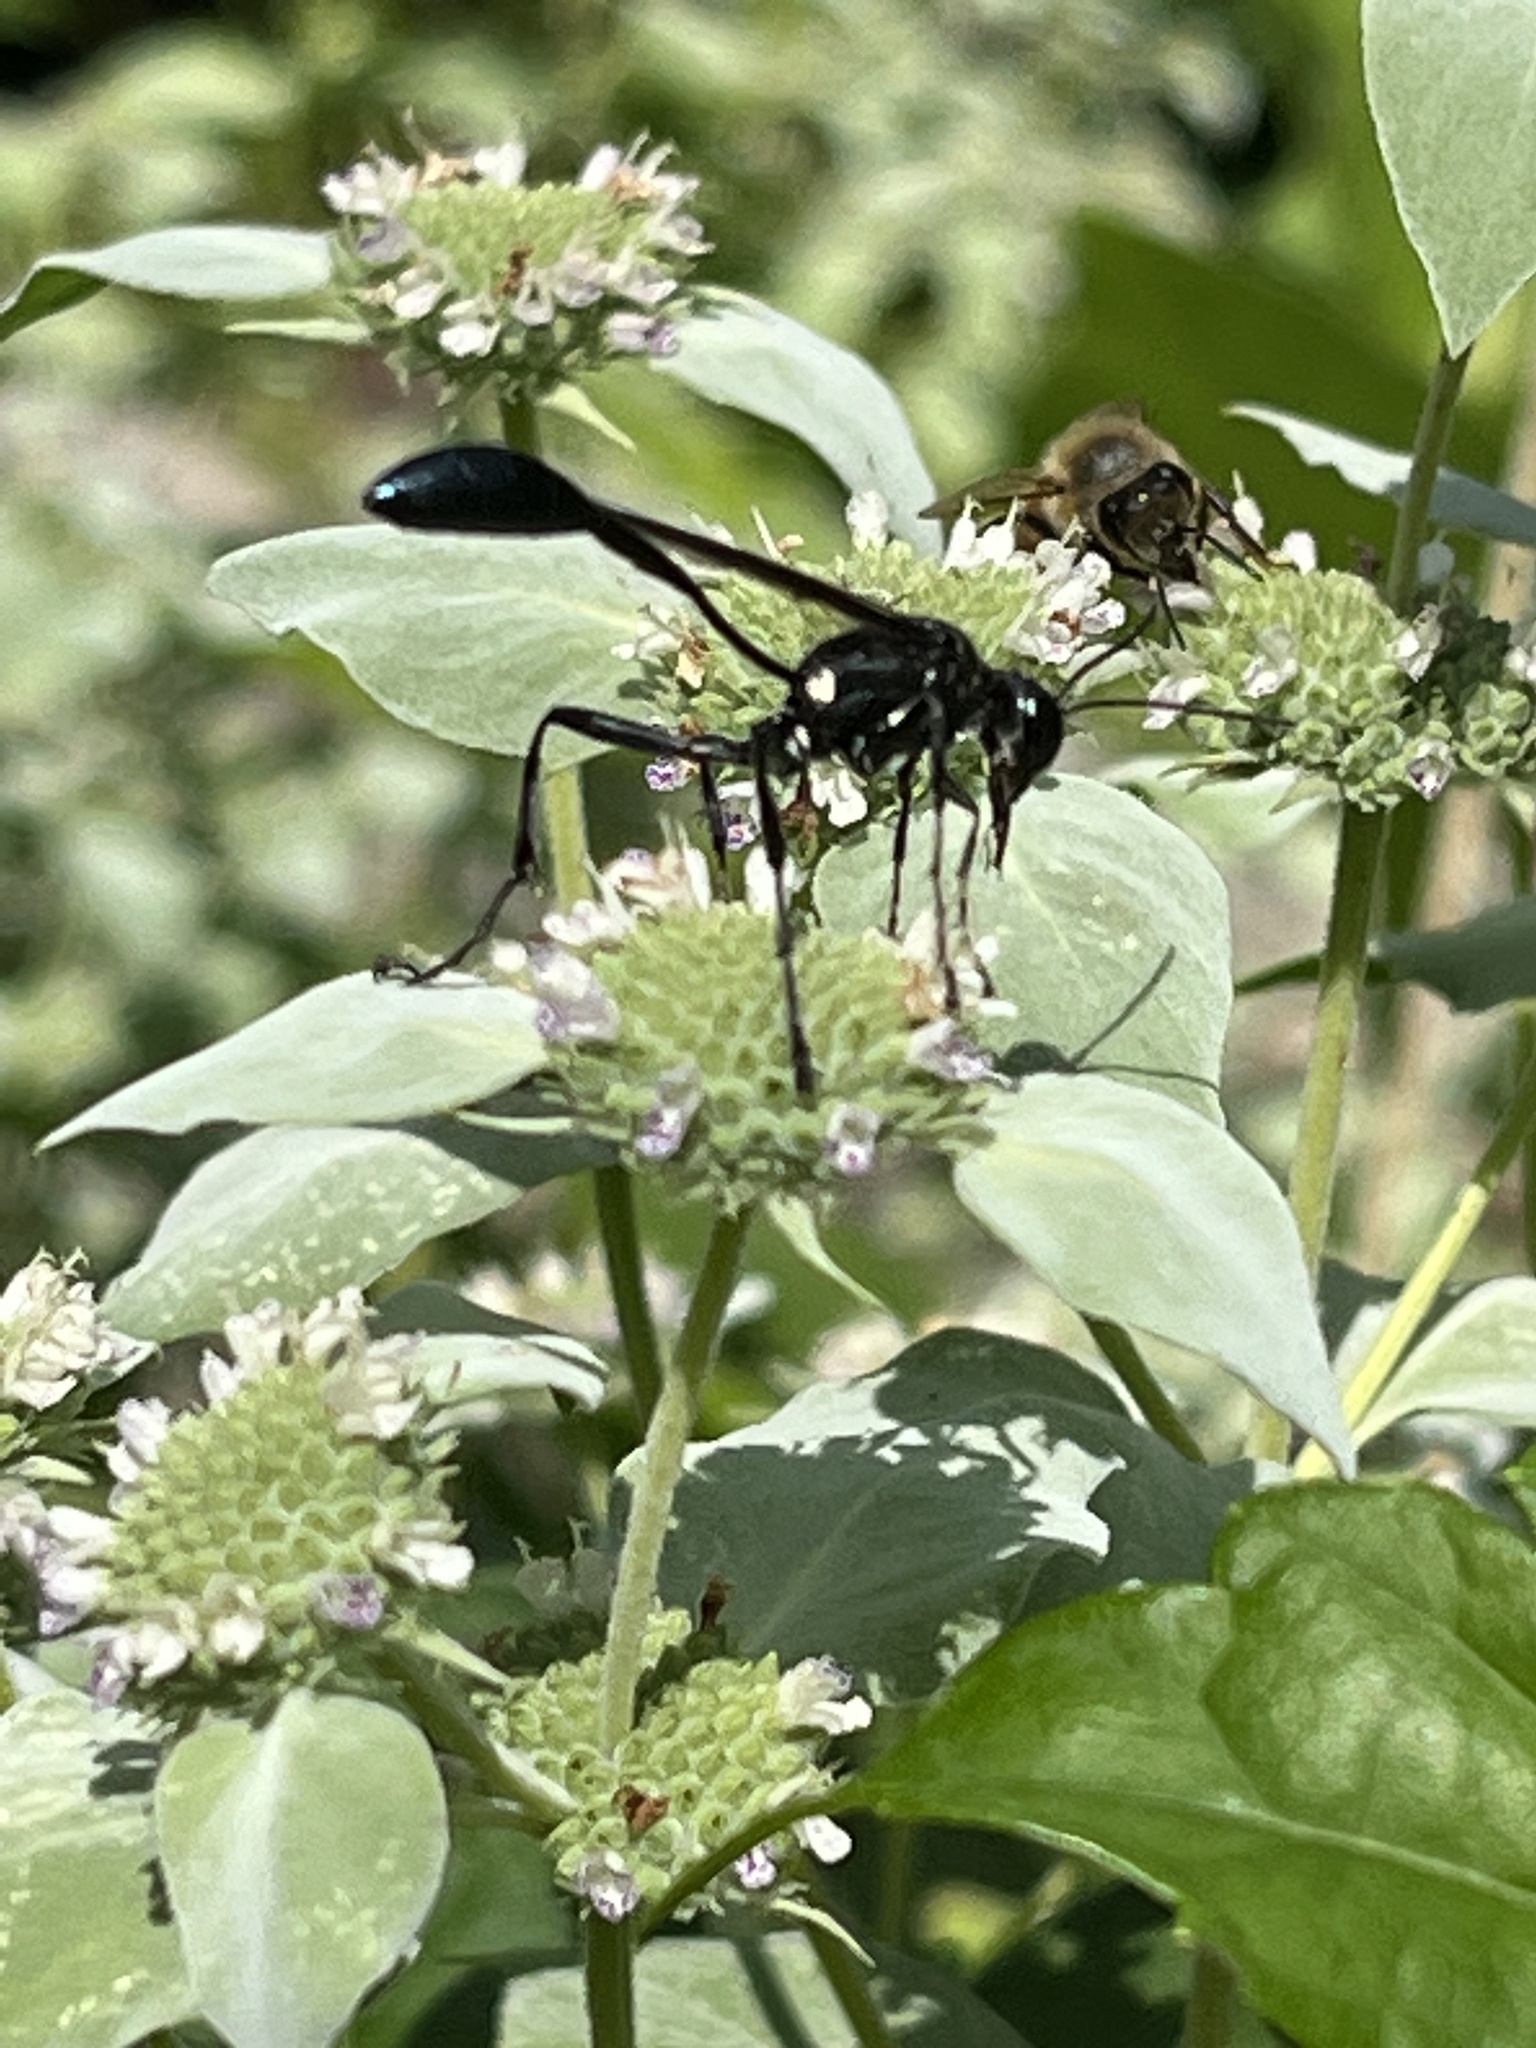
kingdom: Animalia
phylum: Arthropoda
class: Insecta
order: Hymenoptera
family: Sphecidae
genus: Eremnophila
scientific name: Eremnophila aureonotata
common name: Gold-marked thread-waisted wasp
